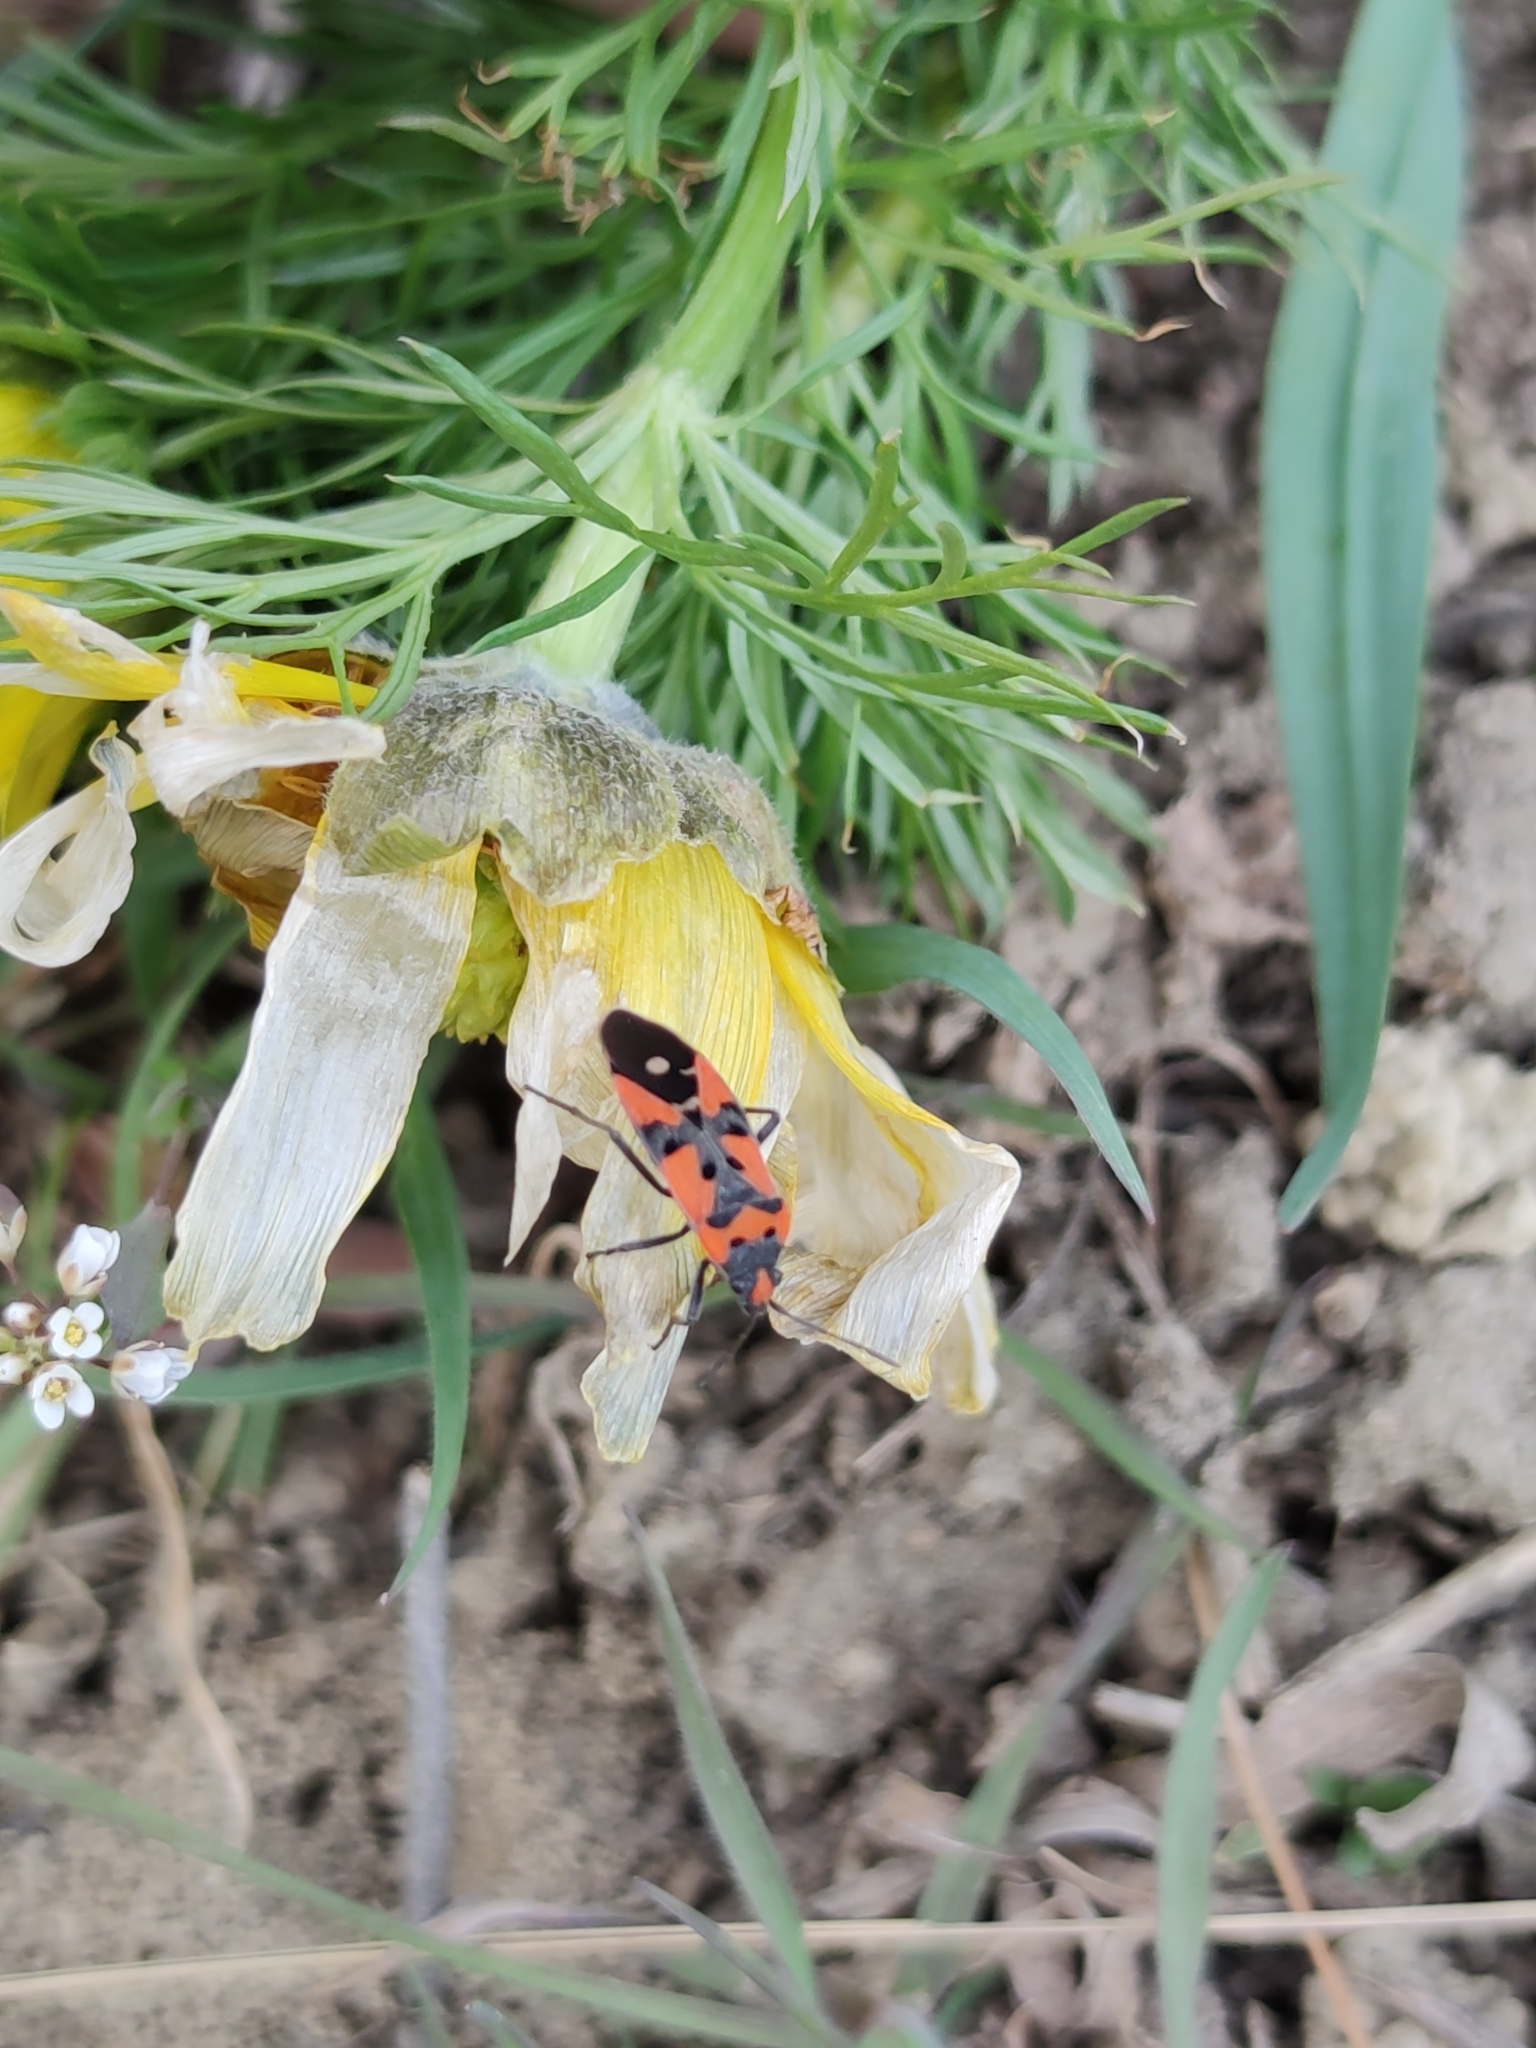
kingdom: Animalia
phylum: Arthropoda
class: Insecta
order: Hemiptera
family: Lygaeidae
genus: Lygaeus
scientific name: Lygaeus equestris
